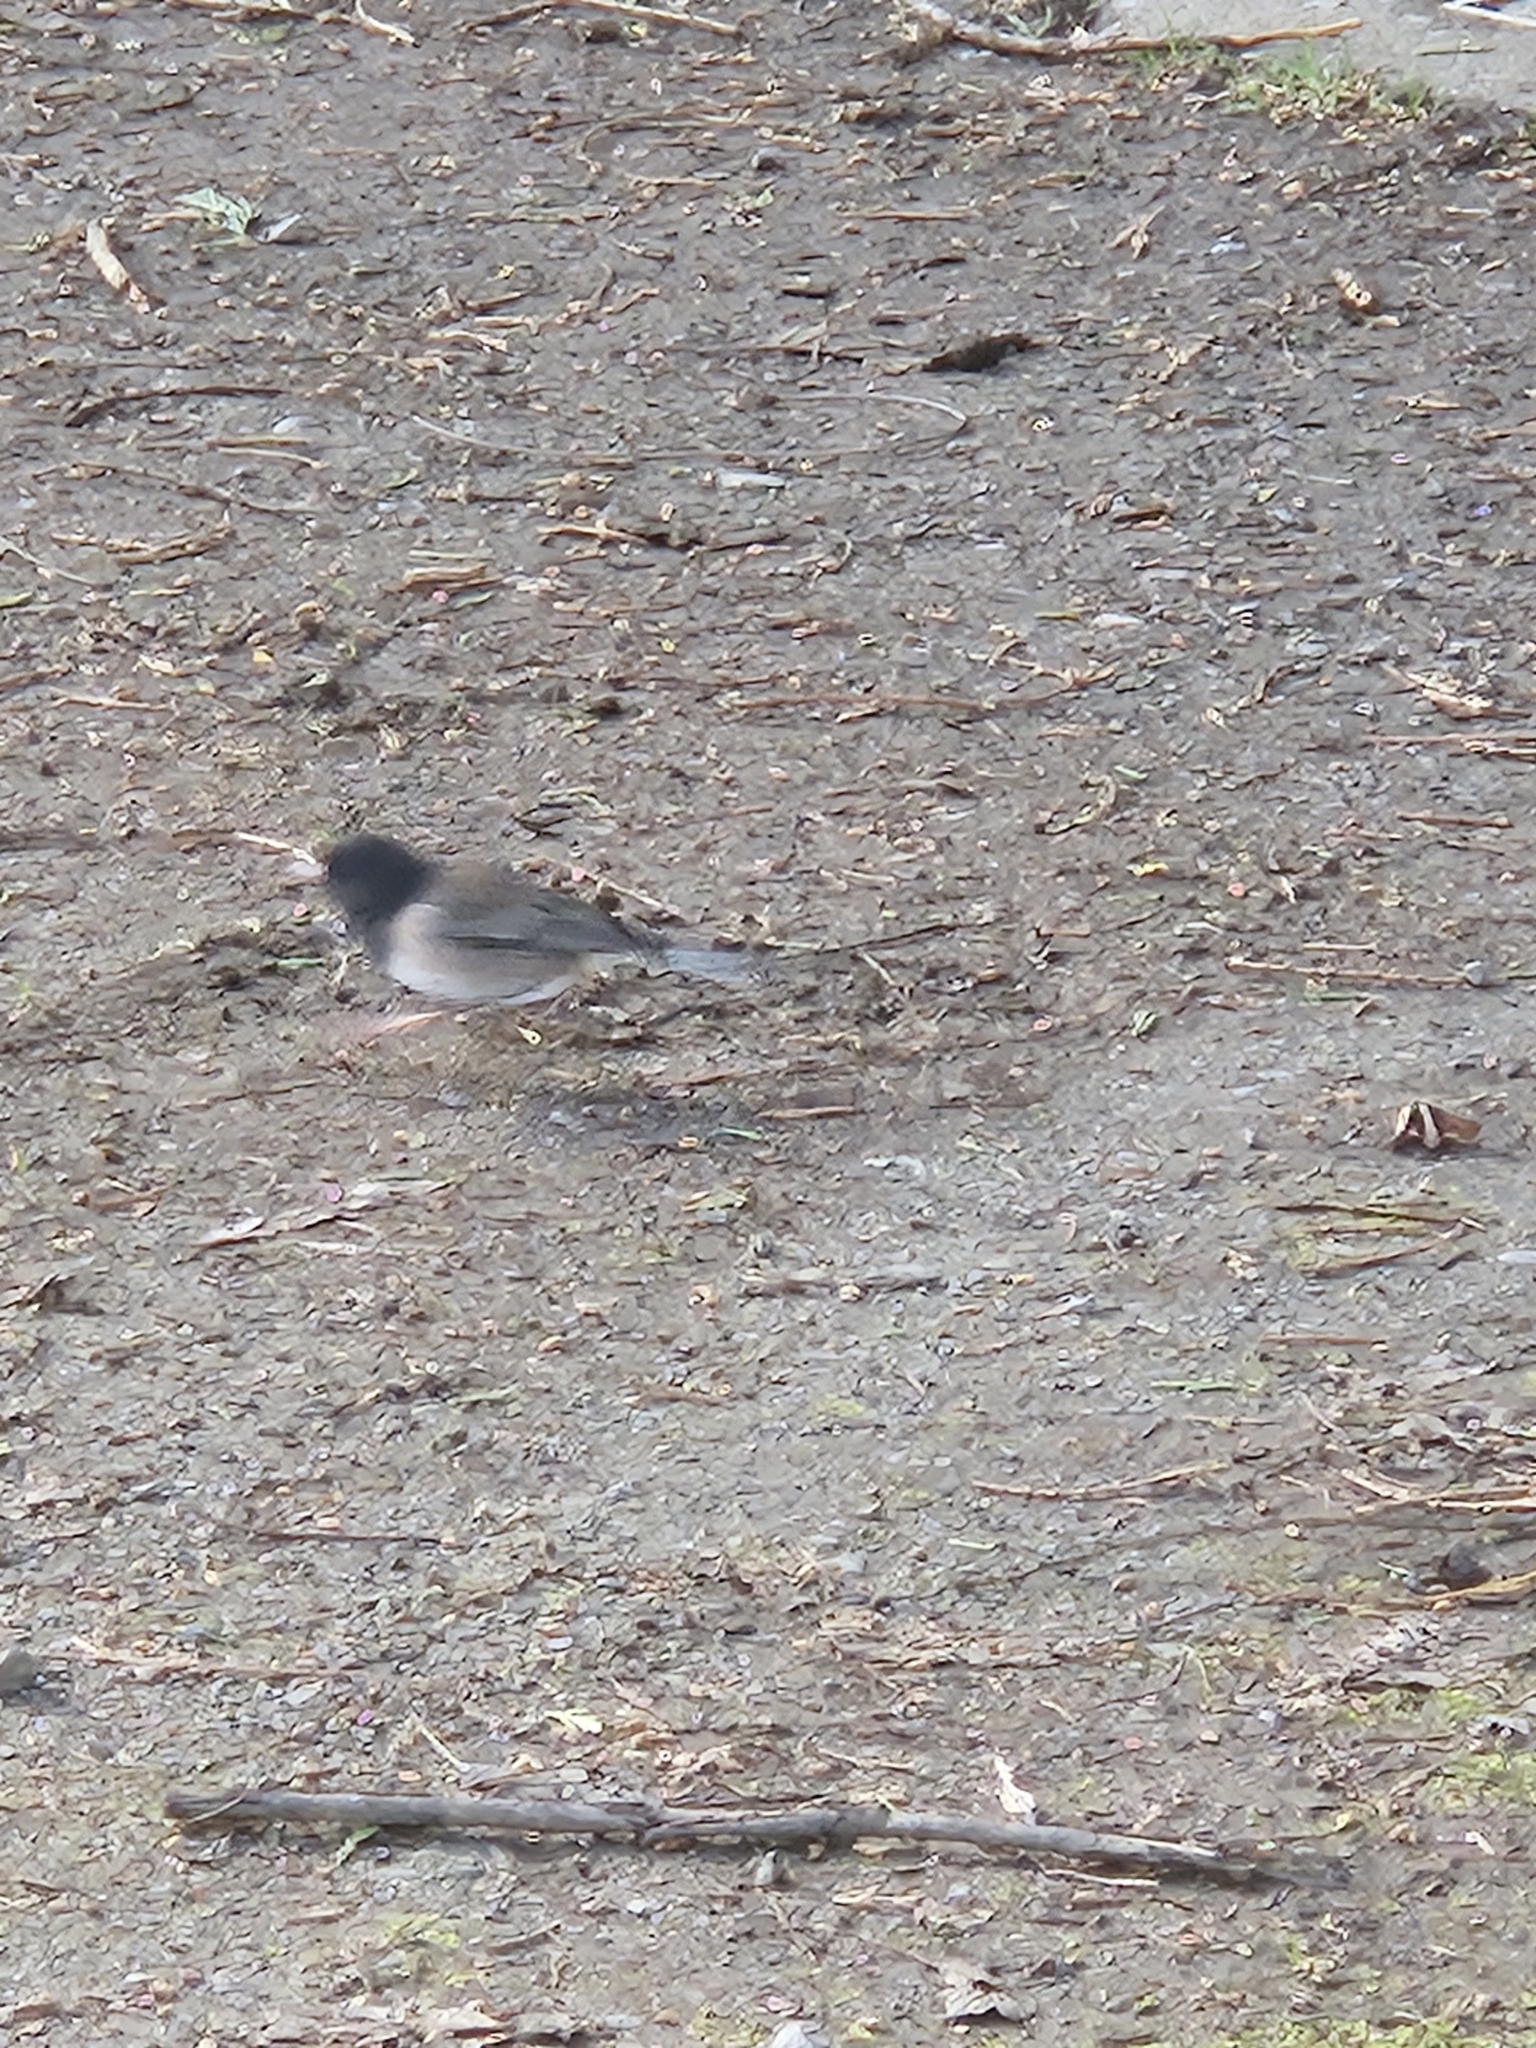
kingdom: Animalia
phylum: Chordata
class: Aves
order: Passeriformes
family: Passerellidae
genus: Junco
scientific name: Junco hyemalis
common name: Dark-eyed junco
